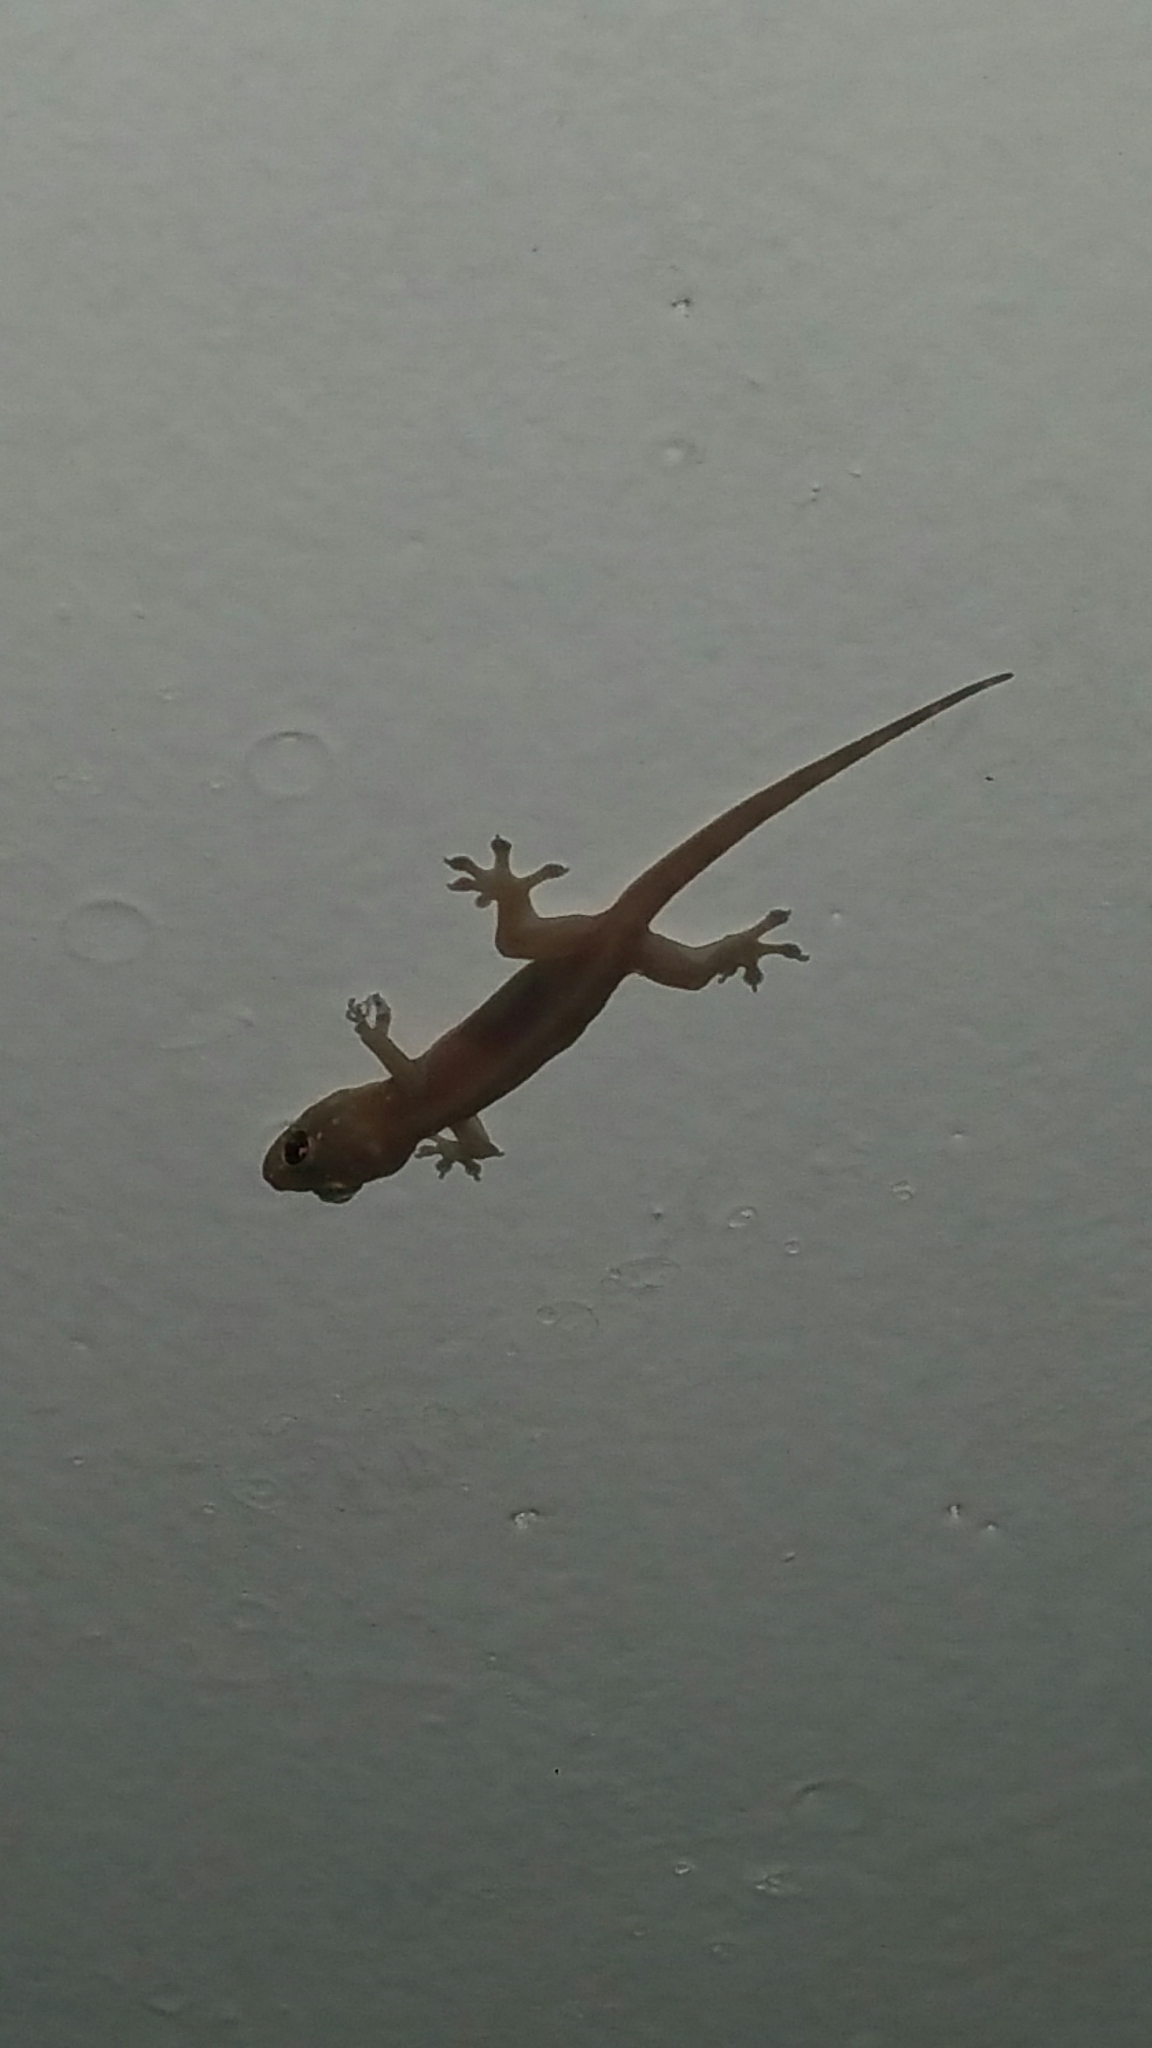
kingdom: Animalia
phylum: Chordata
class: Squamata
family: Gekkonidae
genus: Gehyra
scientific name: Gehyra mutilata
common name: Stump-toed gecko
